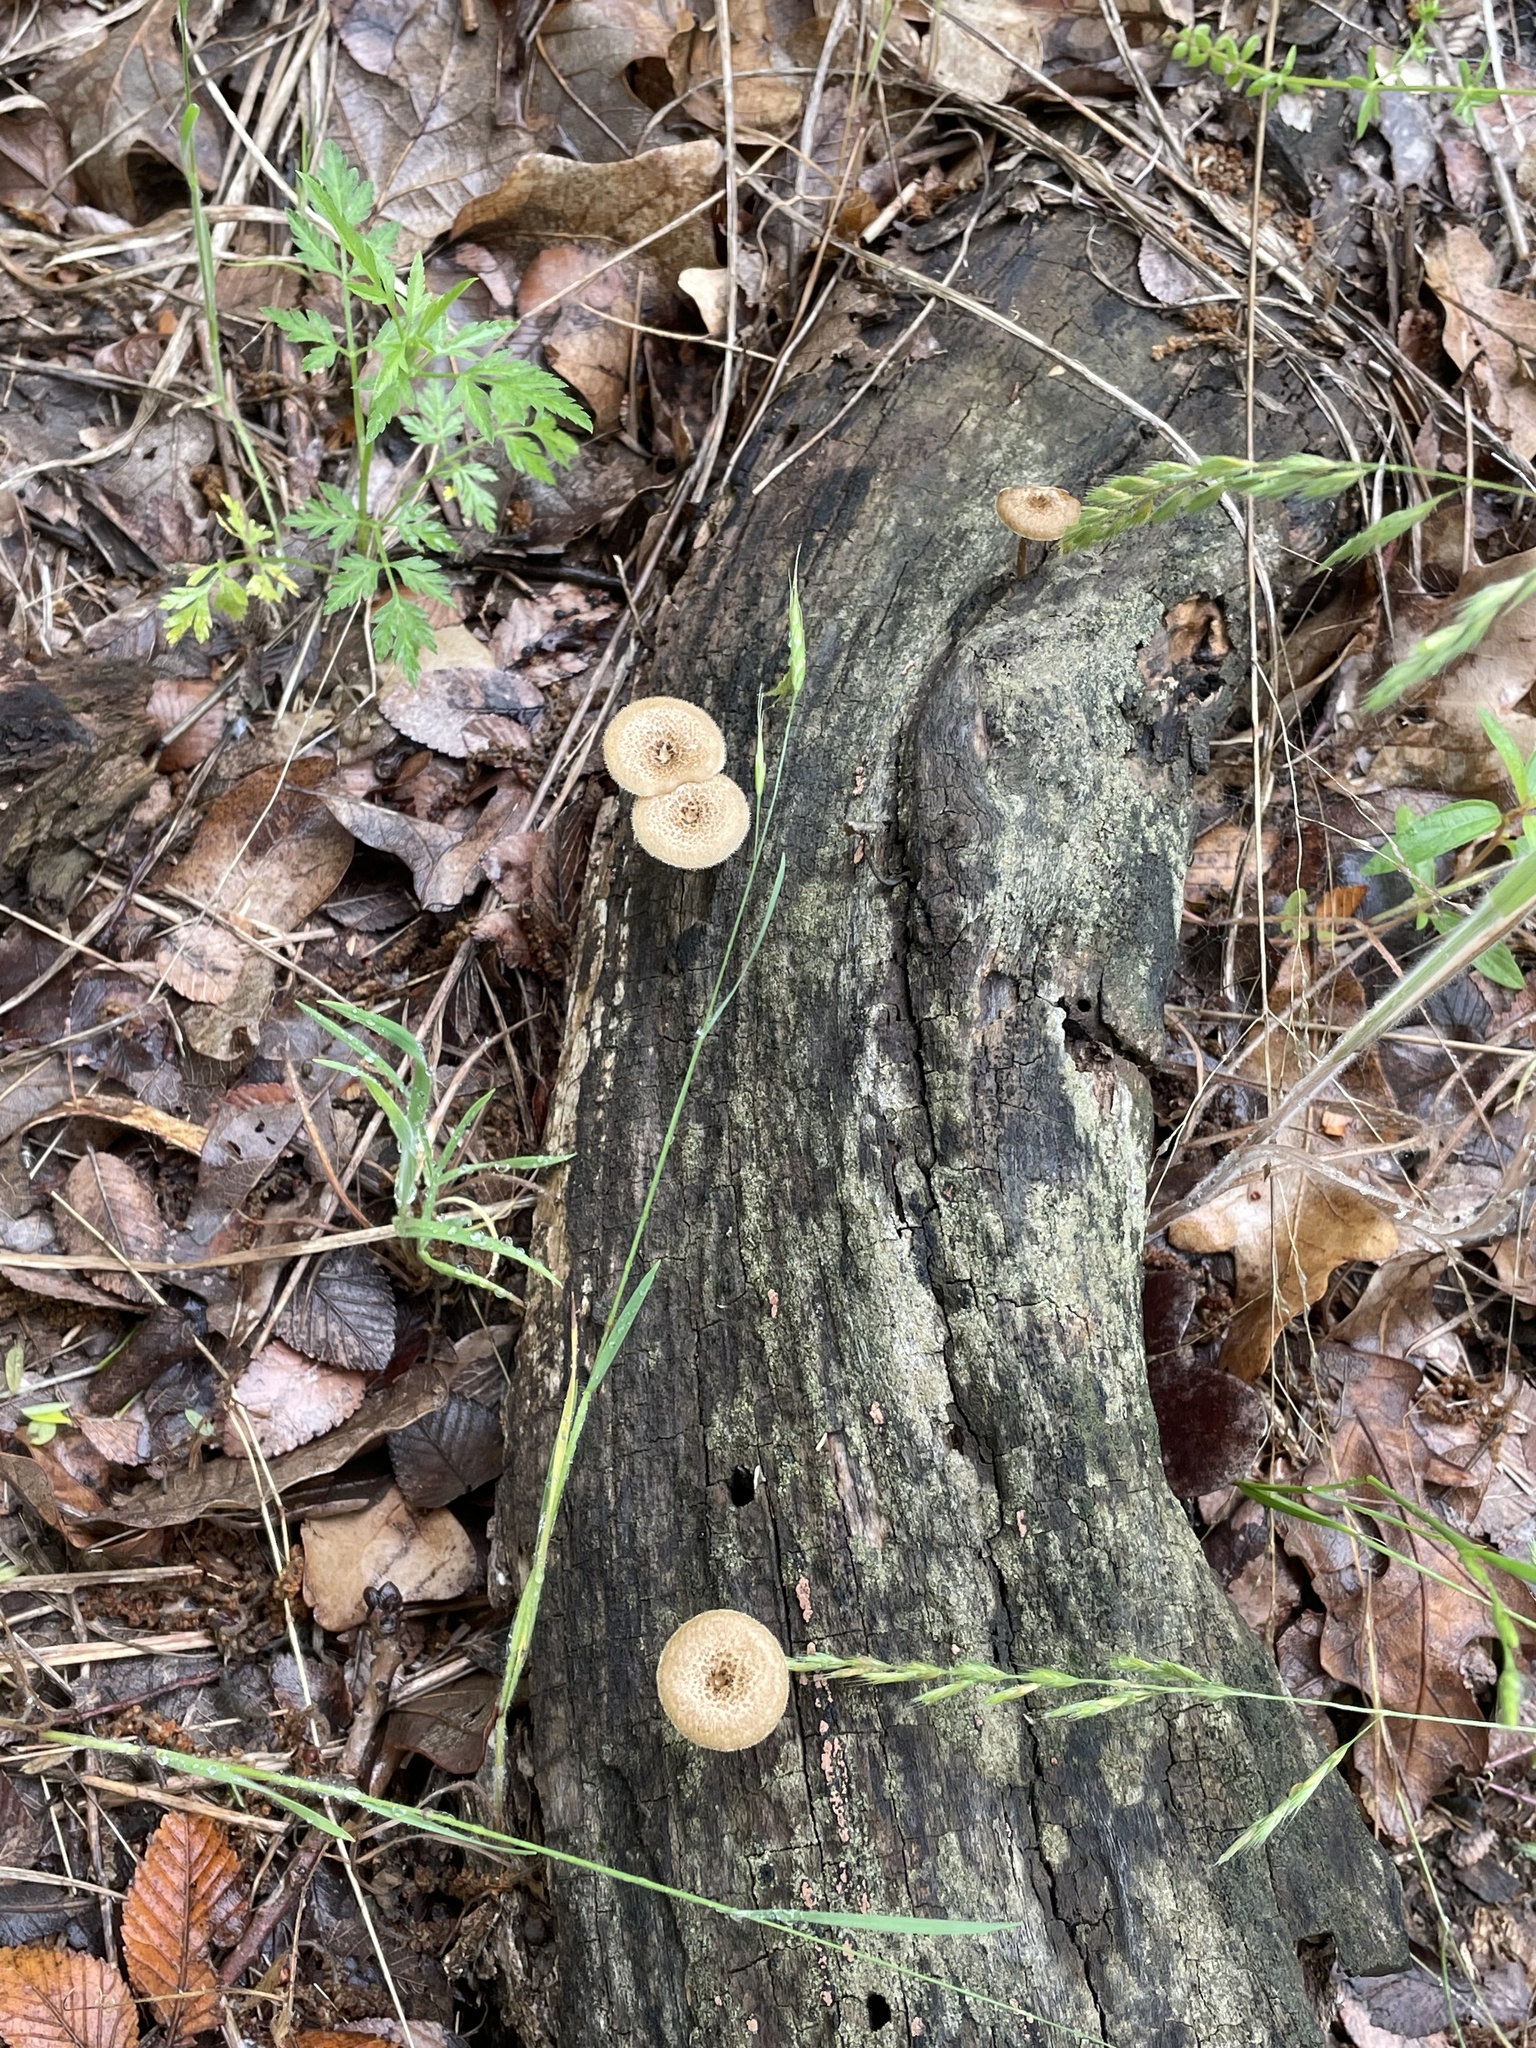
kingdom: Fungi
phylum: Basidiomycota
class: Agaricomycetes
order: Polyporales
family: Polyporaceae
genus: Lentinus
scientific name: Lentinus arcularius
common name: Spring polypore
